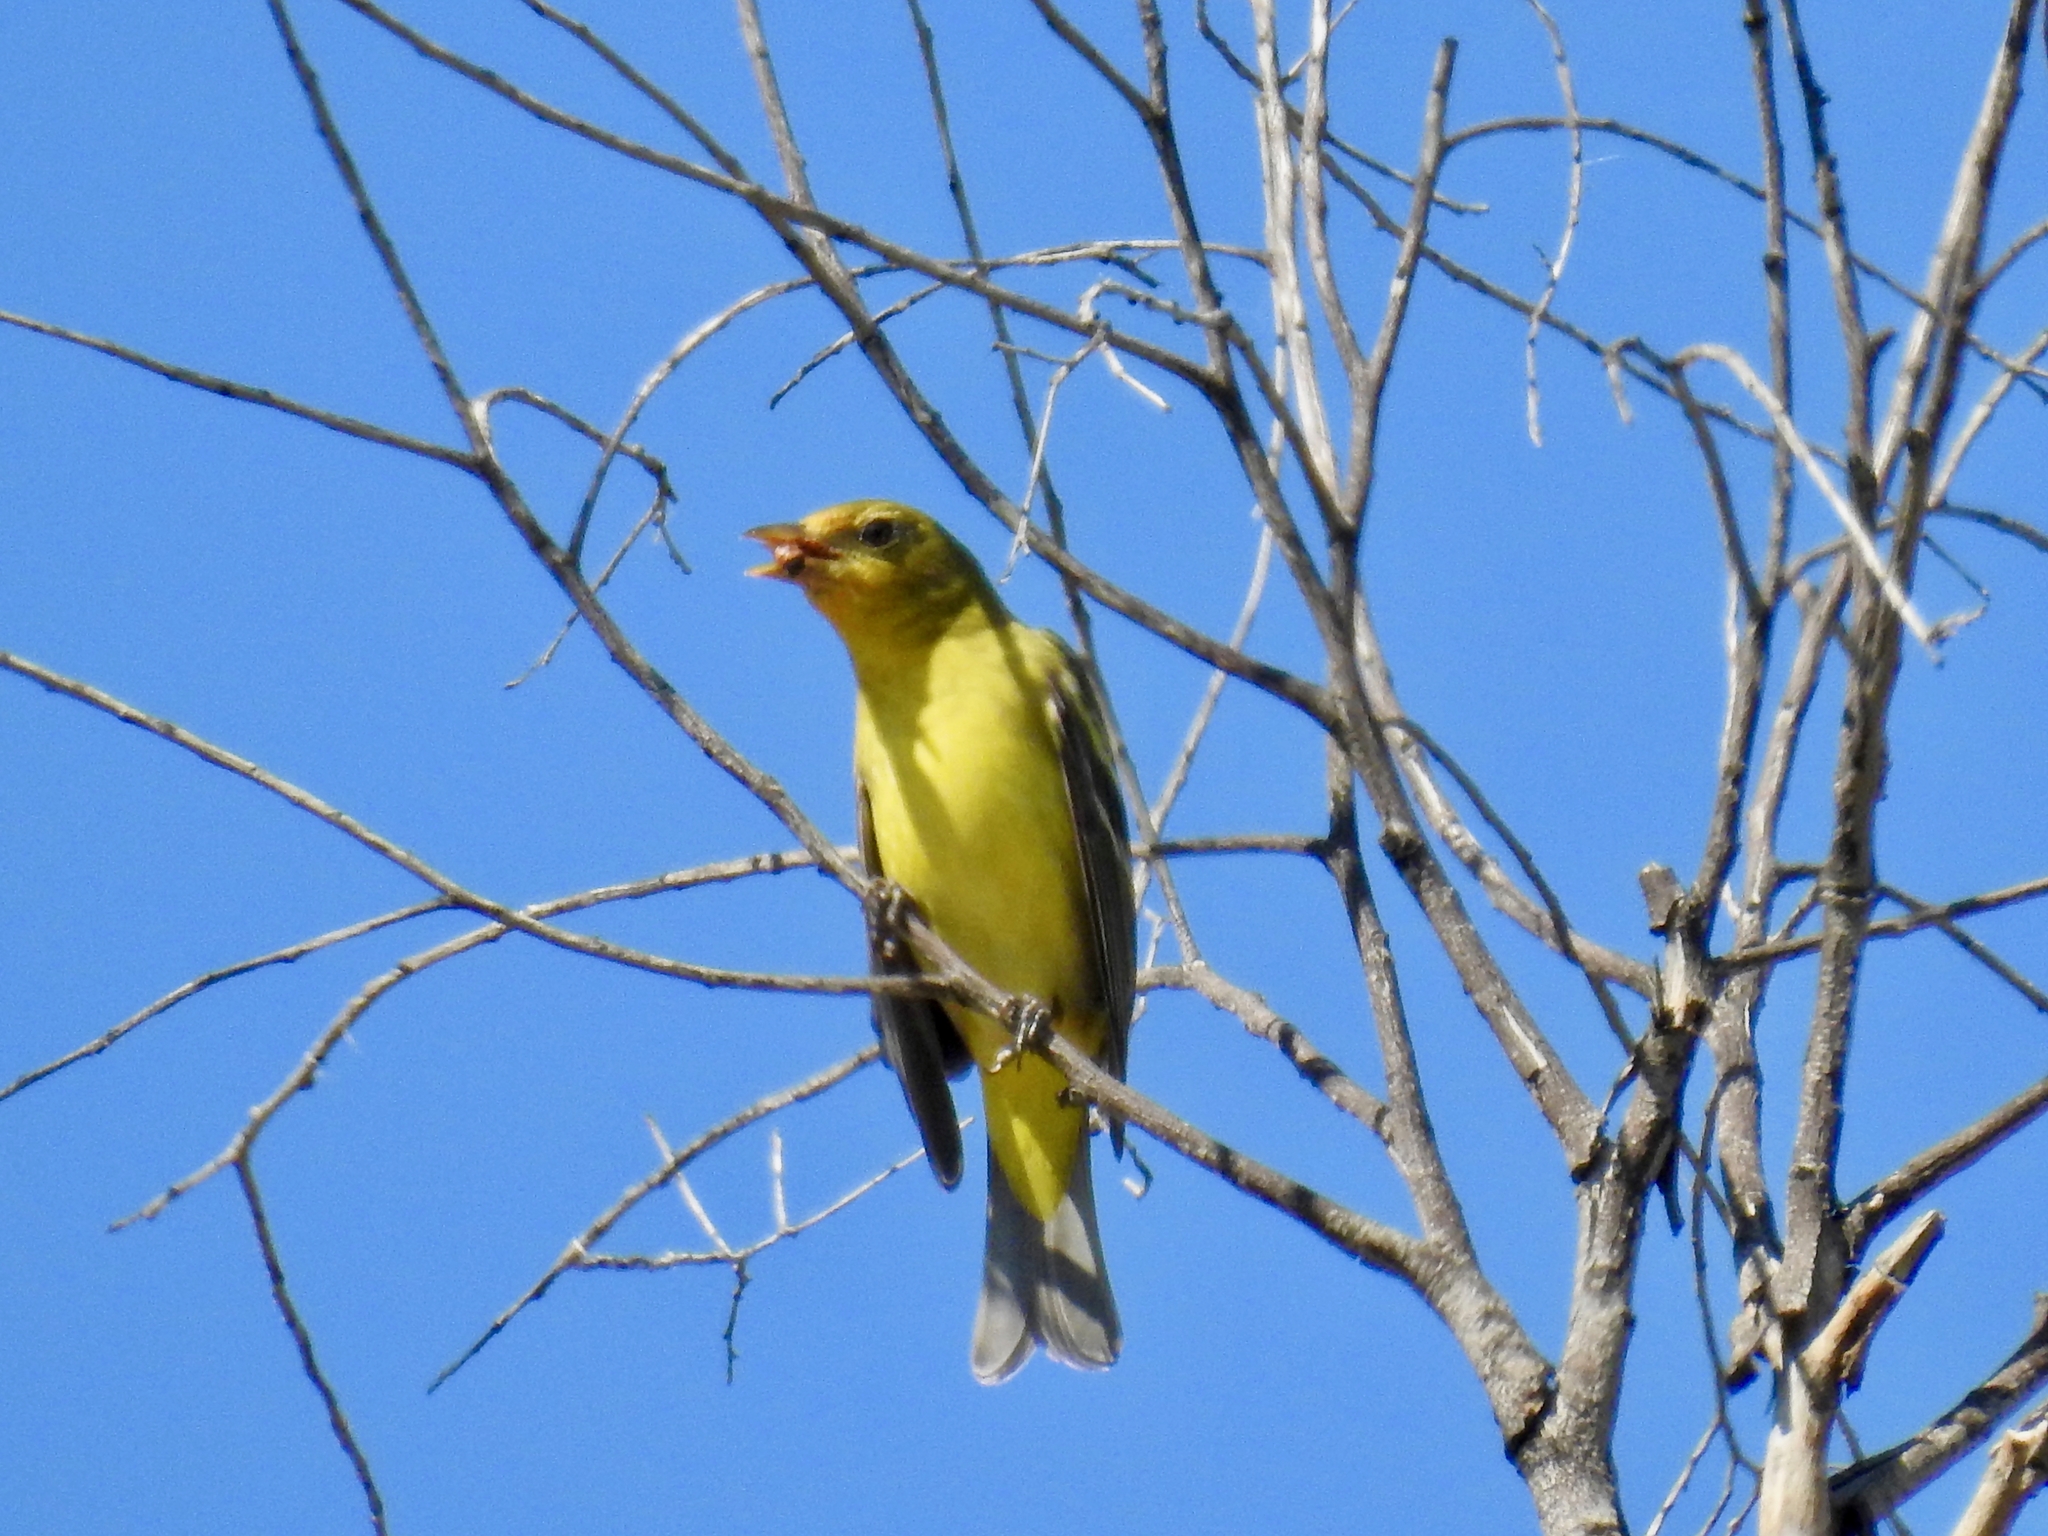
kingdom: Animalia
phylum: Chordata
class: Aves
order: Passeriformes
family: Cardinalidae
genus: Piranga
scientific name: Piranga ludoviciana
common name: Western tanager
